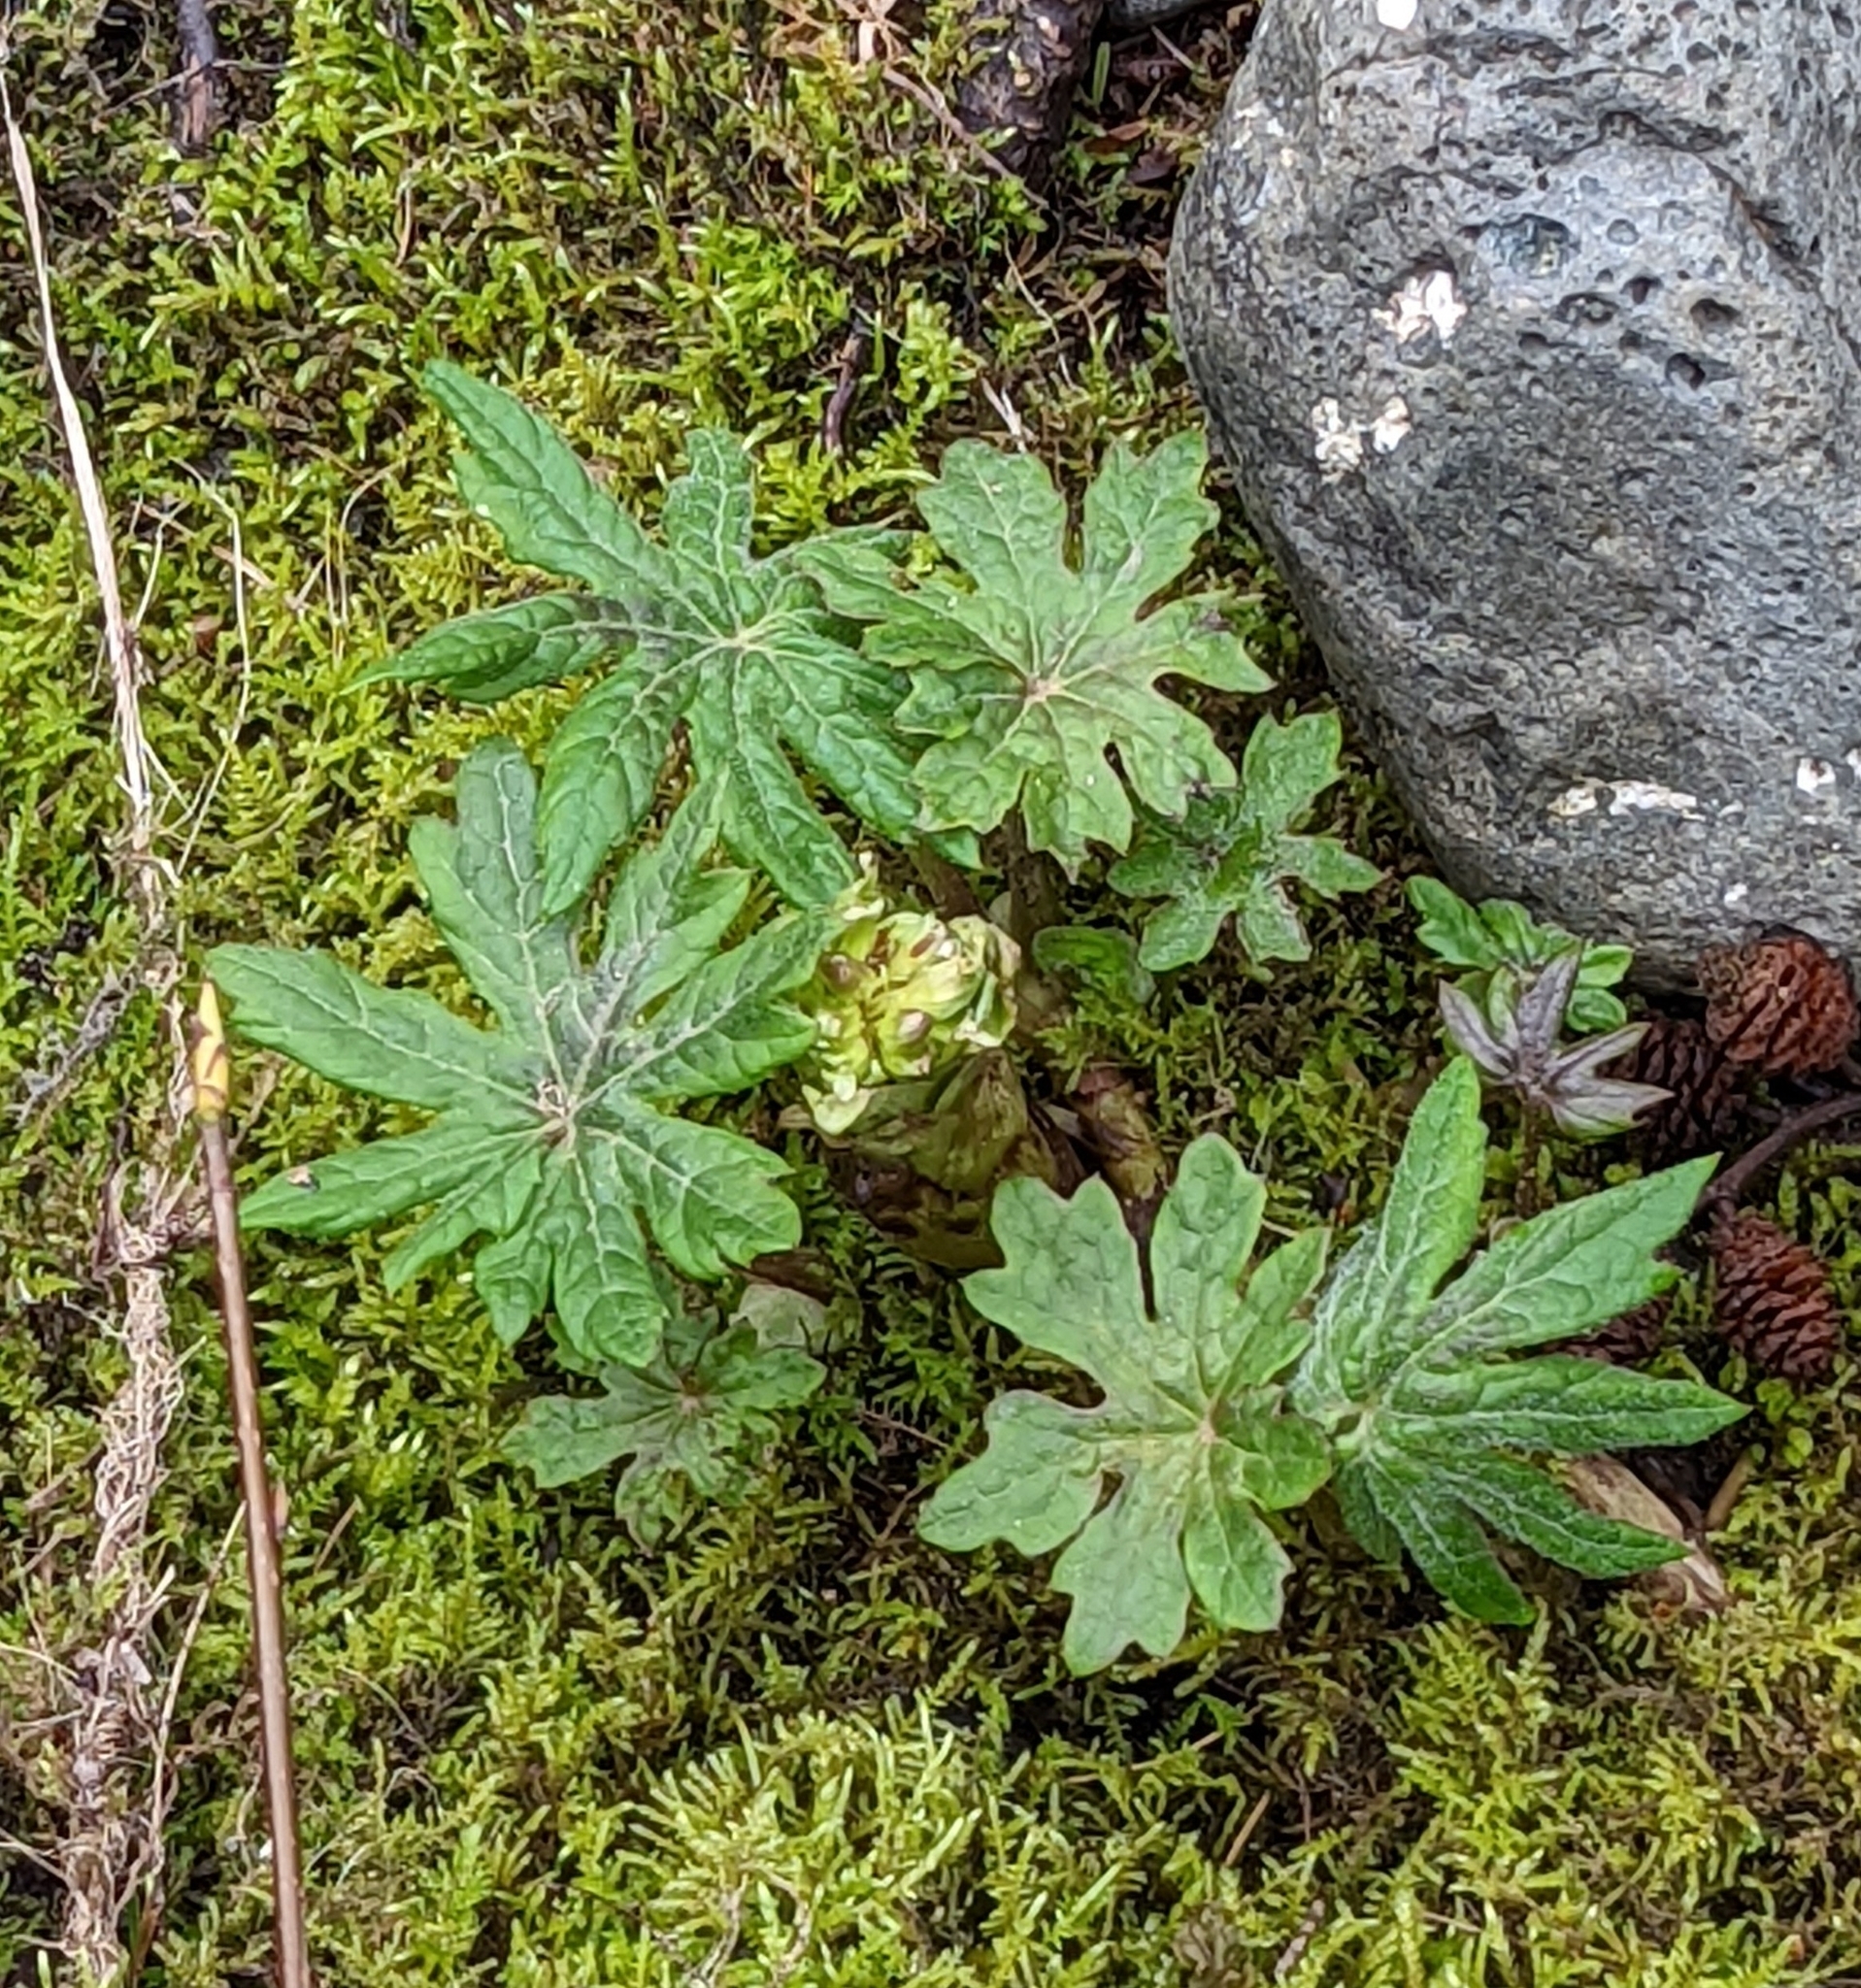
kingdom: Plantae
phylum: Tracheophyta
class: Magnoliopsida
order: Asterales
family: Asteraceae
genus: Petasites
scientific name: Petasites frigidus
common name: Arctic butterbur
